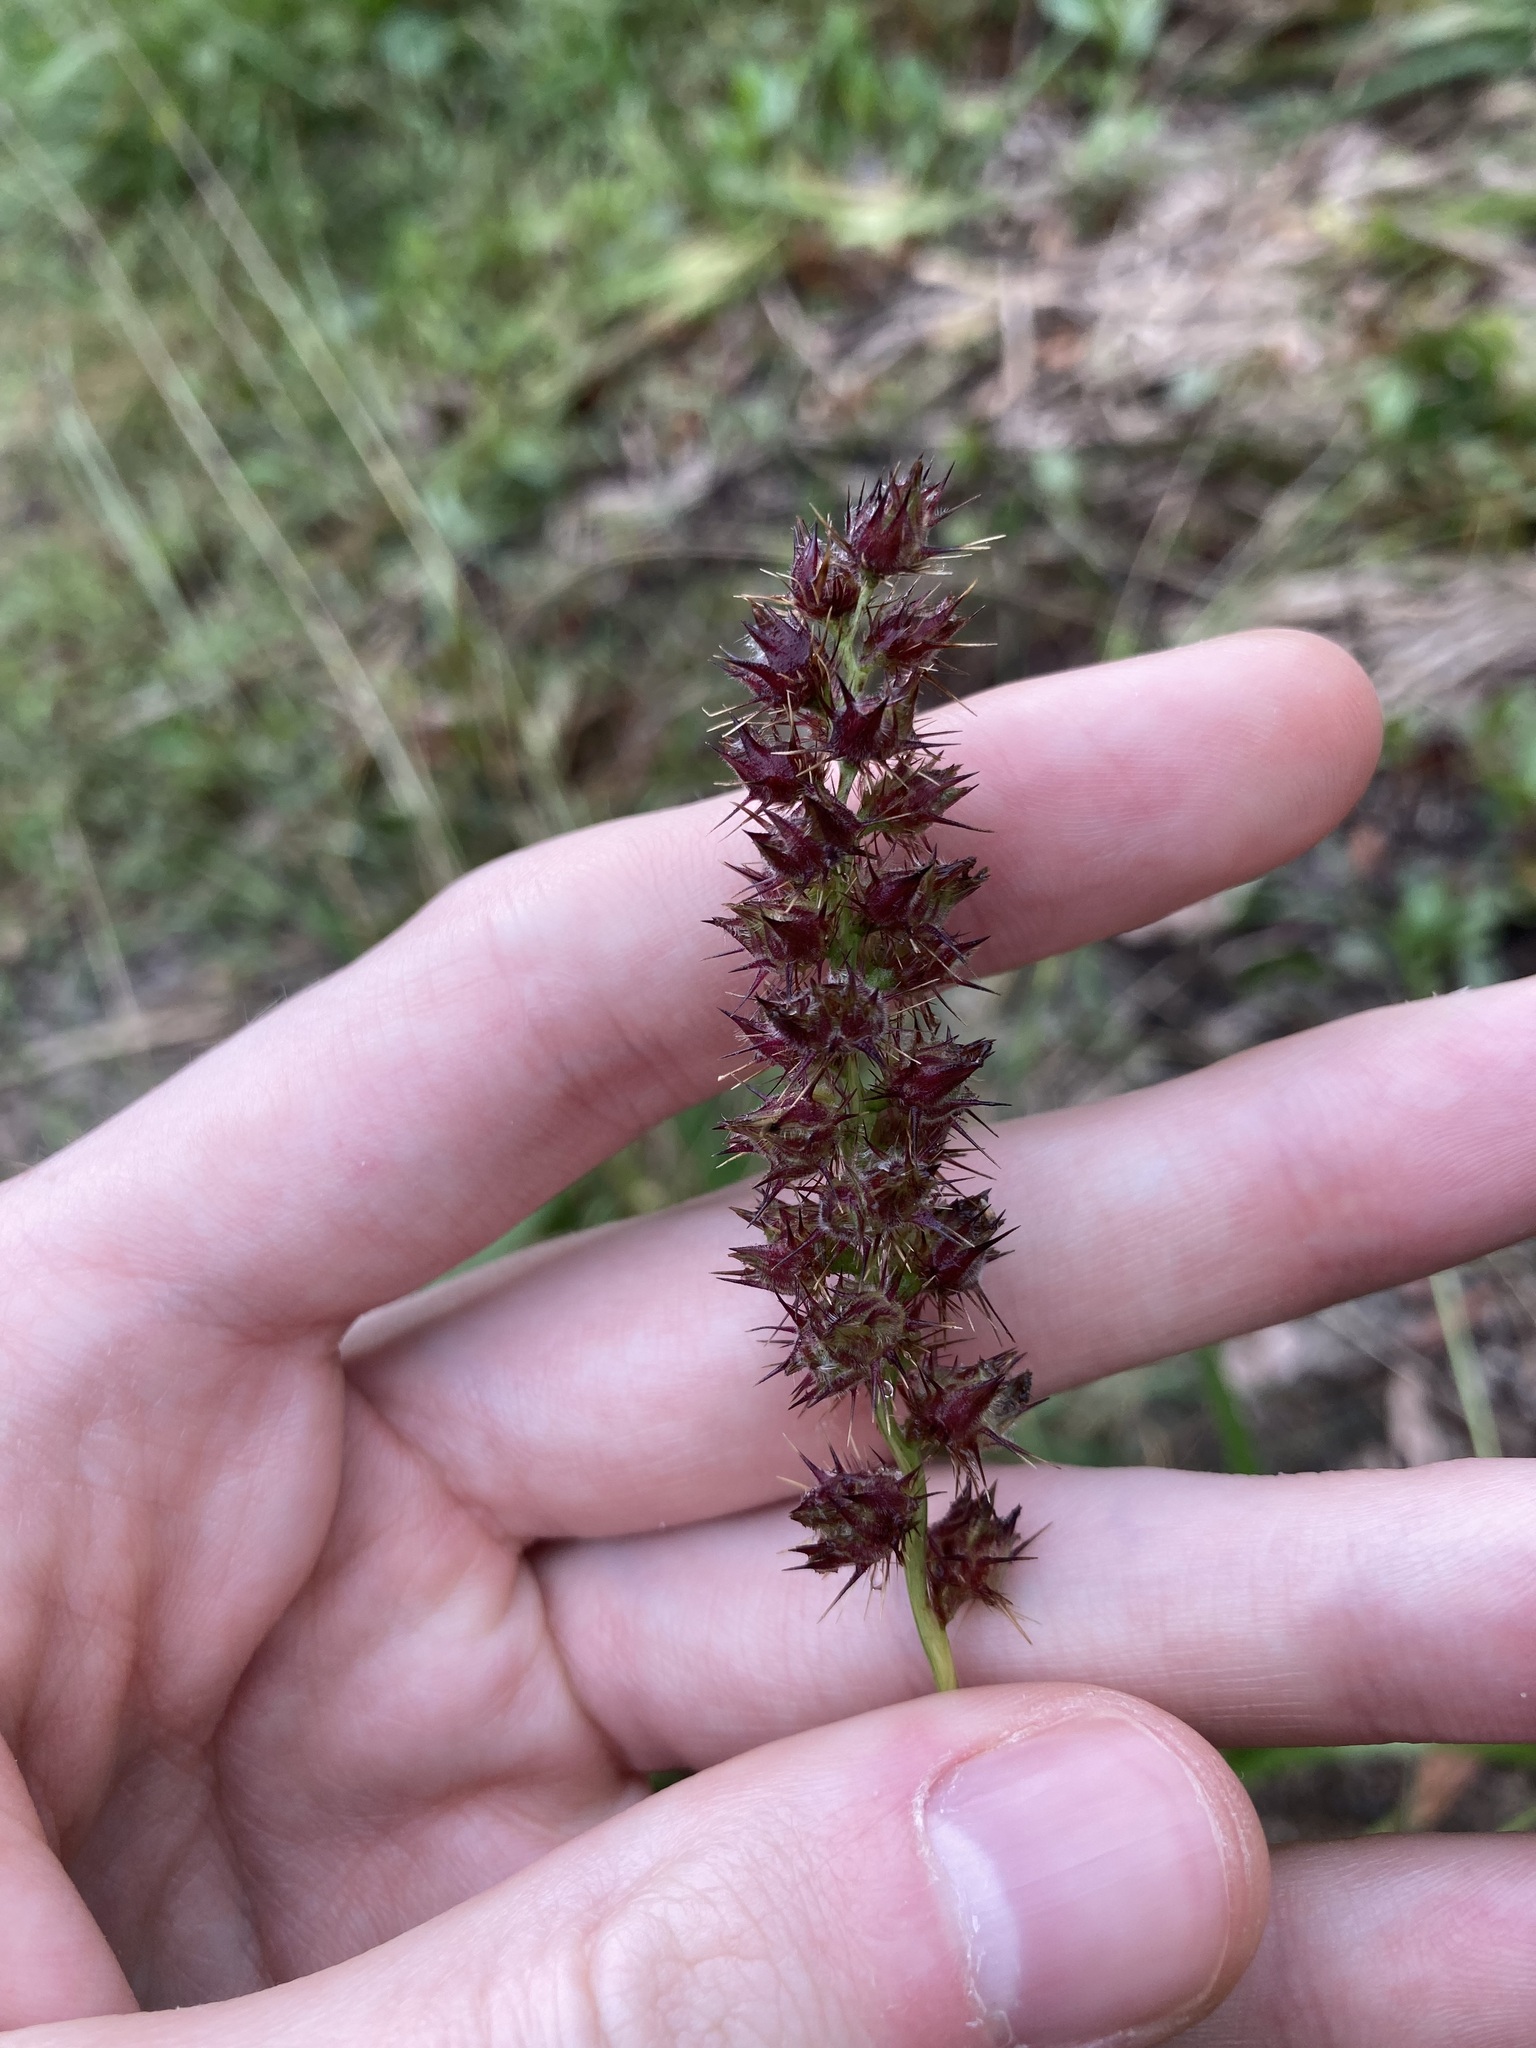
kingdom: Plantae
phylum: Tracheophyta
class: Liliopsida
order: Poales
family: Poaceae
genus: Cenchrus
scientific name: Cenchrus echinatus
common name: Southern sandbur
